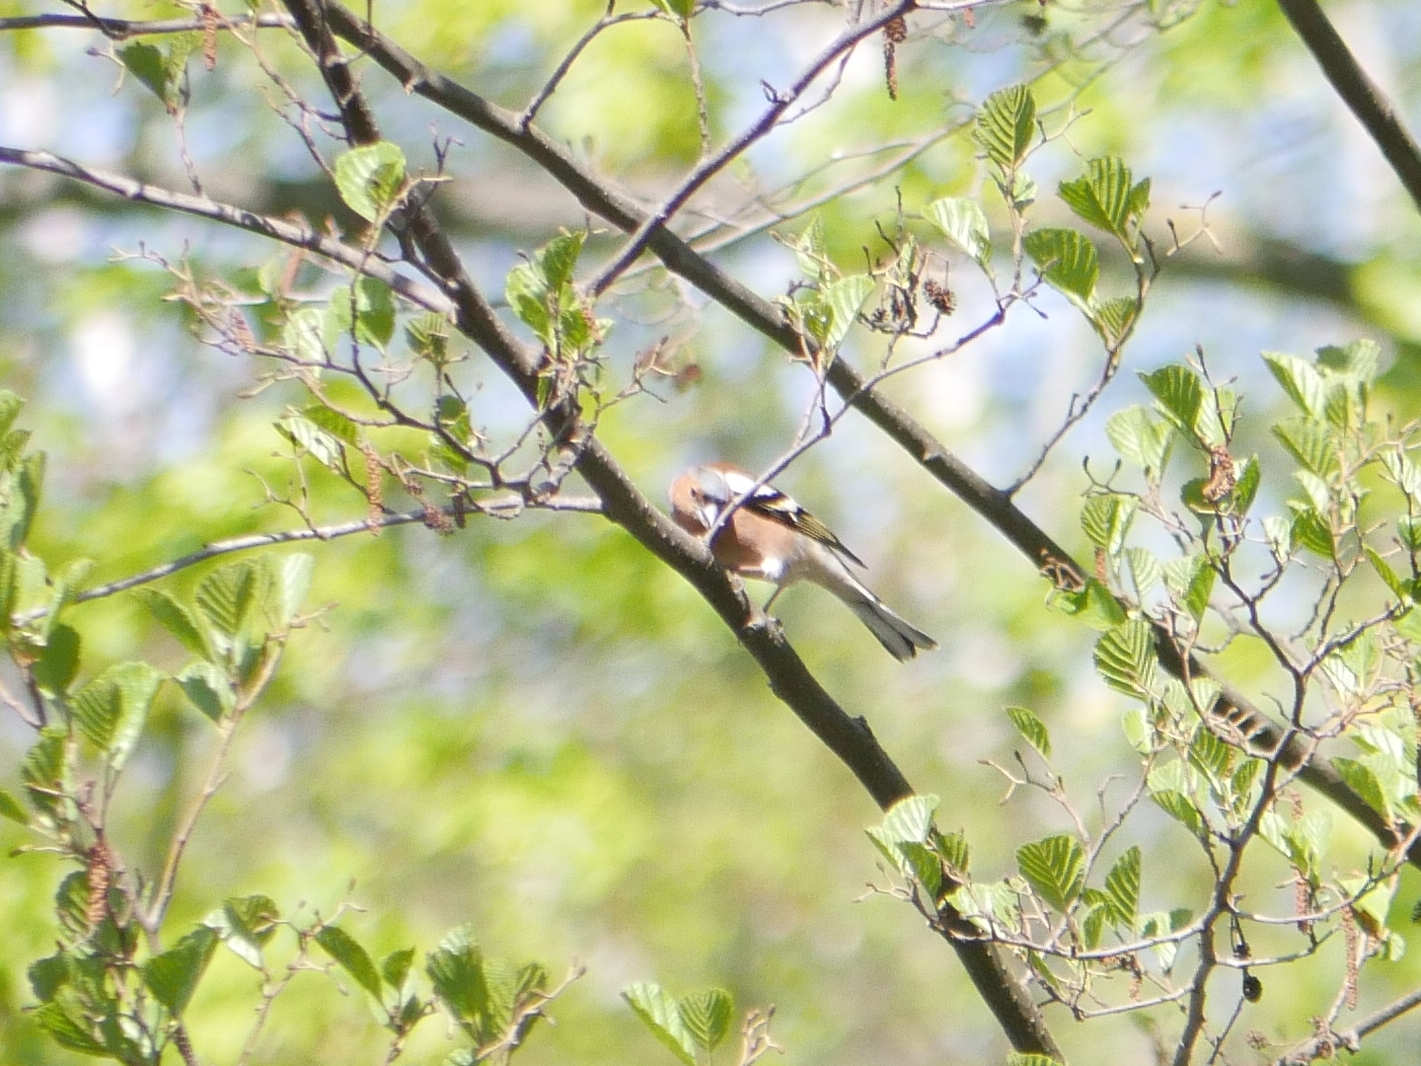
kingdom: Animalia
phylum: Chordata
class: Aves
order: Passeriformes
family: Fringillidae
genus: Fringilla
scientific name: Fringilla coelebs
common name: Common chaffinch
